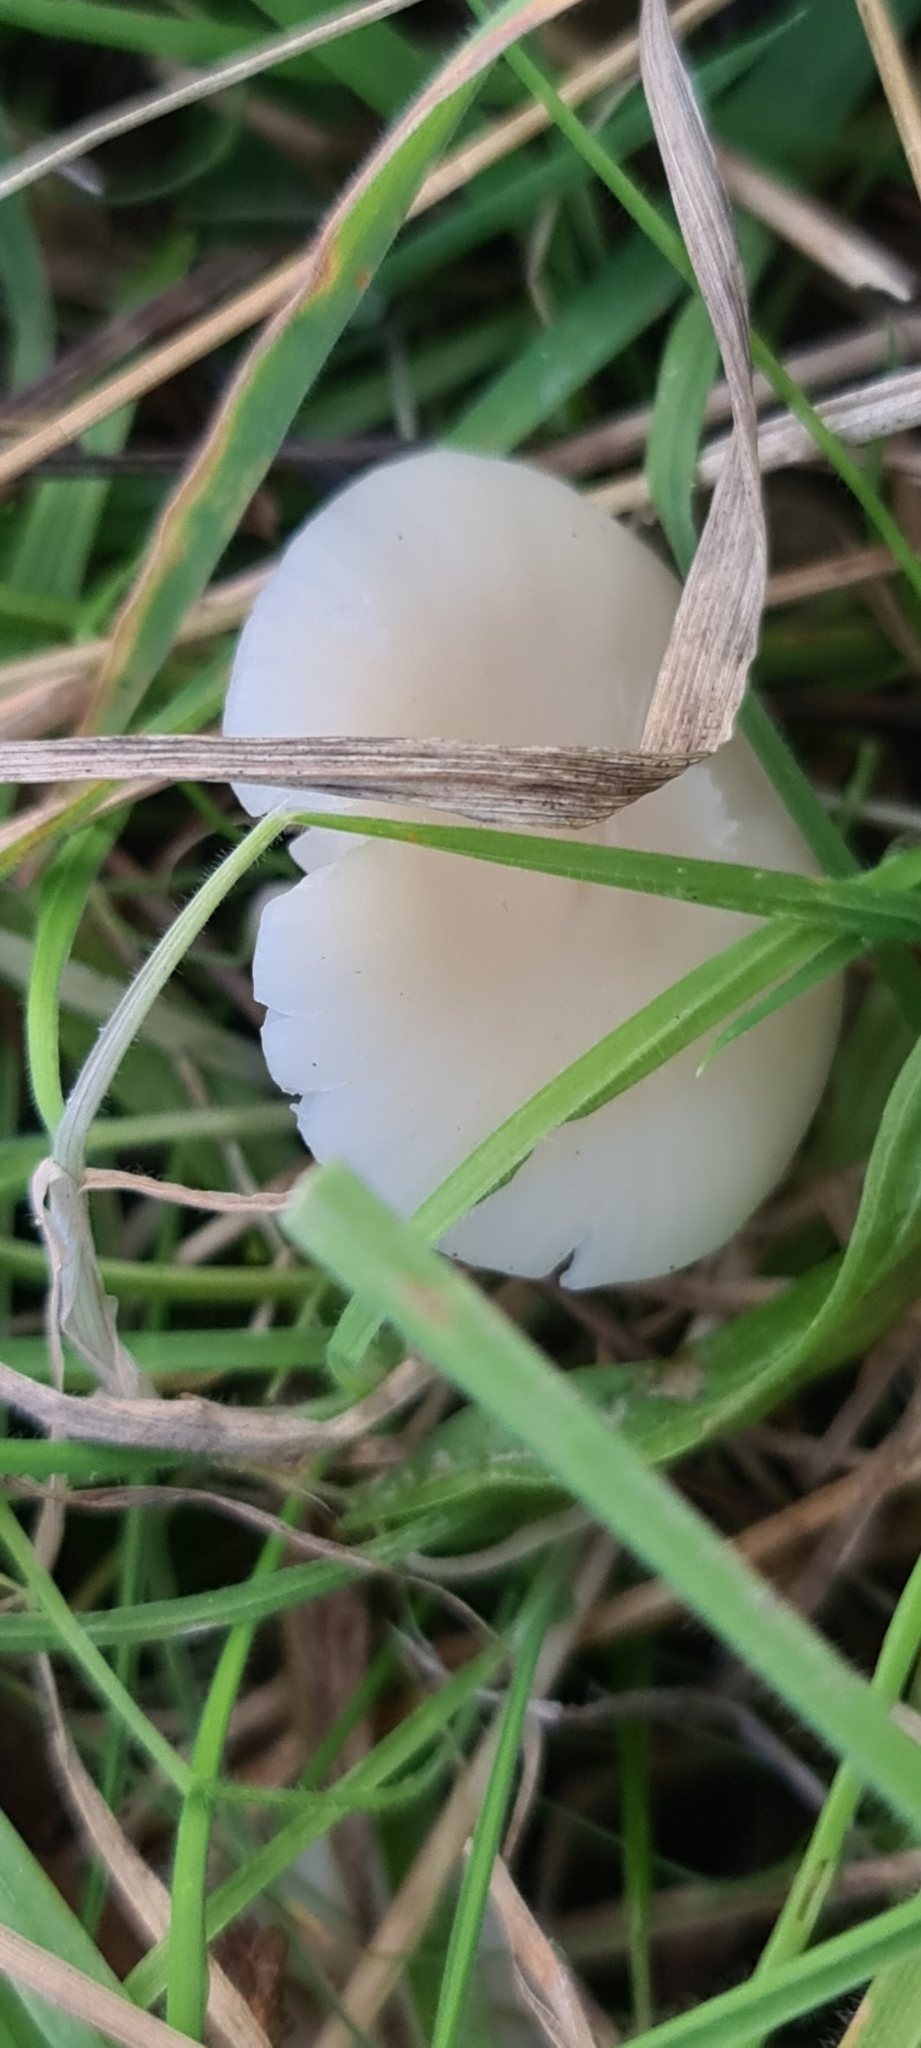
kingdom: Fungi
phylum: Basidiomycota
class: Agaricomycetes
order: Agaricales
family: Hygrophoraceae
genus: Cuphophyllus
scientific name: Cuphophyllus virgineus
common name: Snowy waxcap
